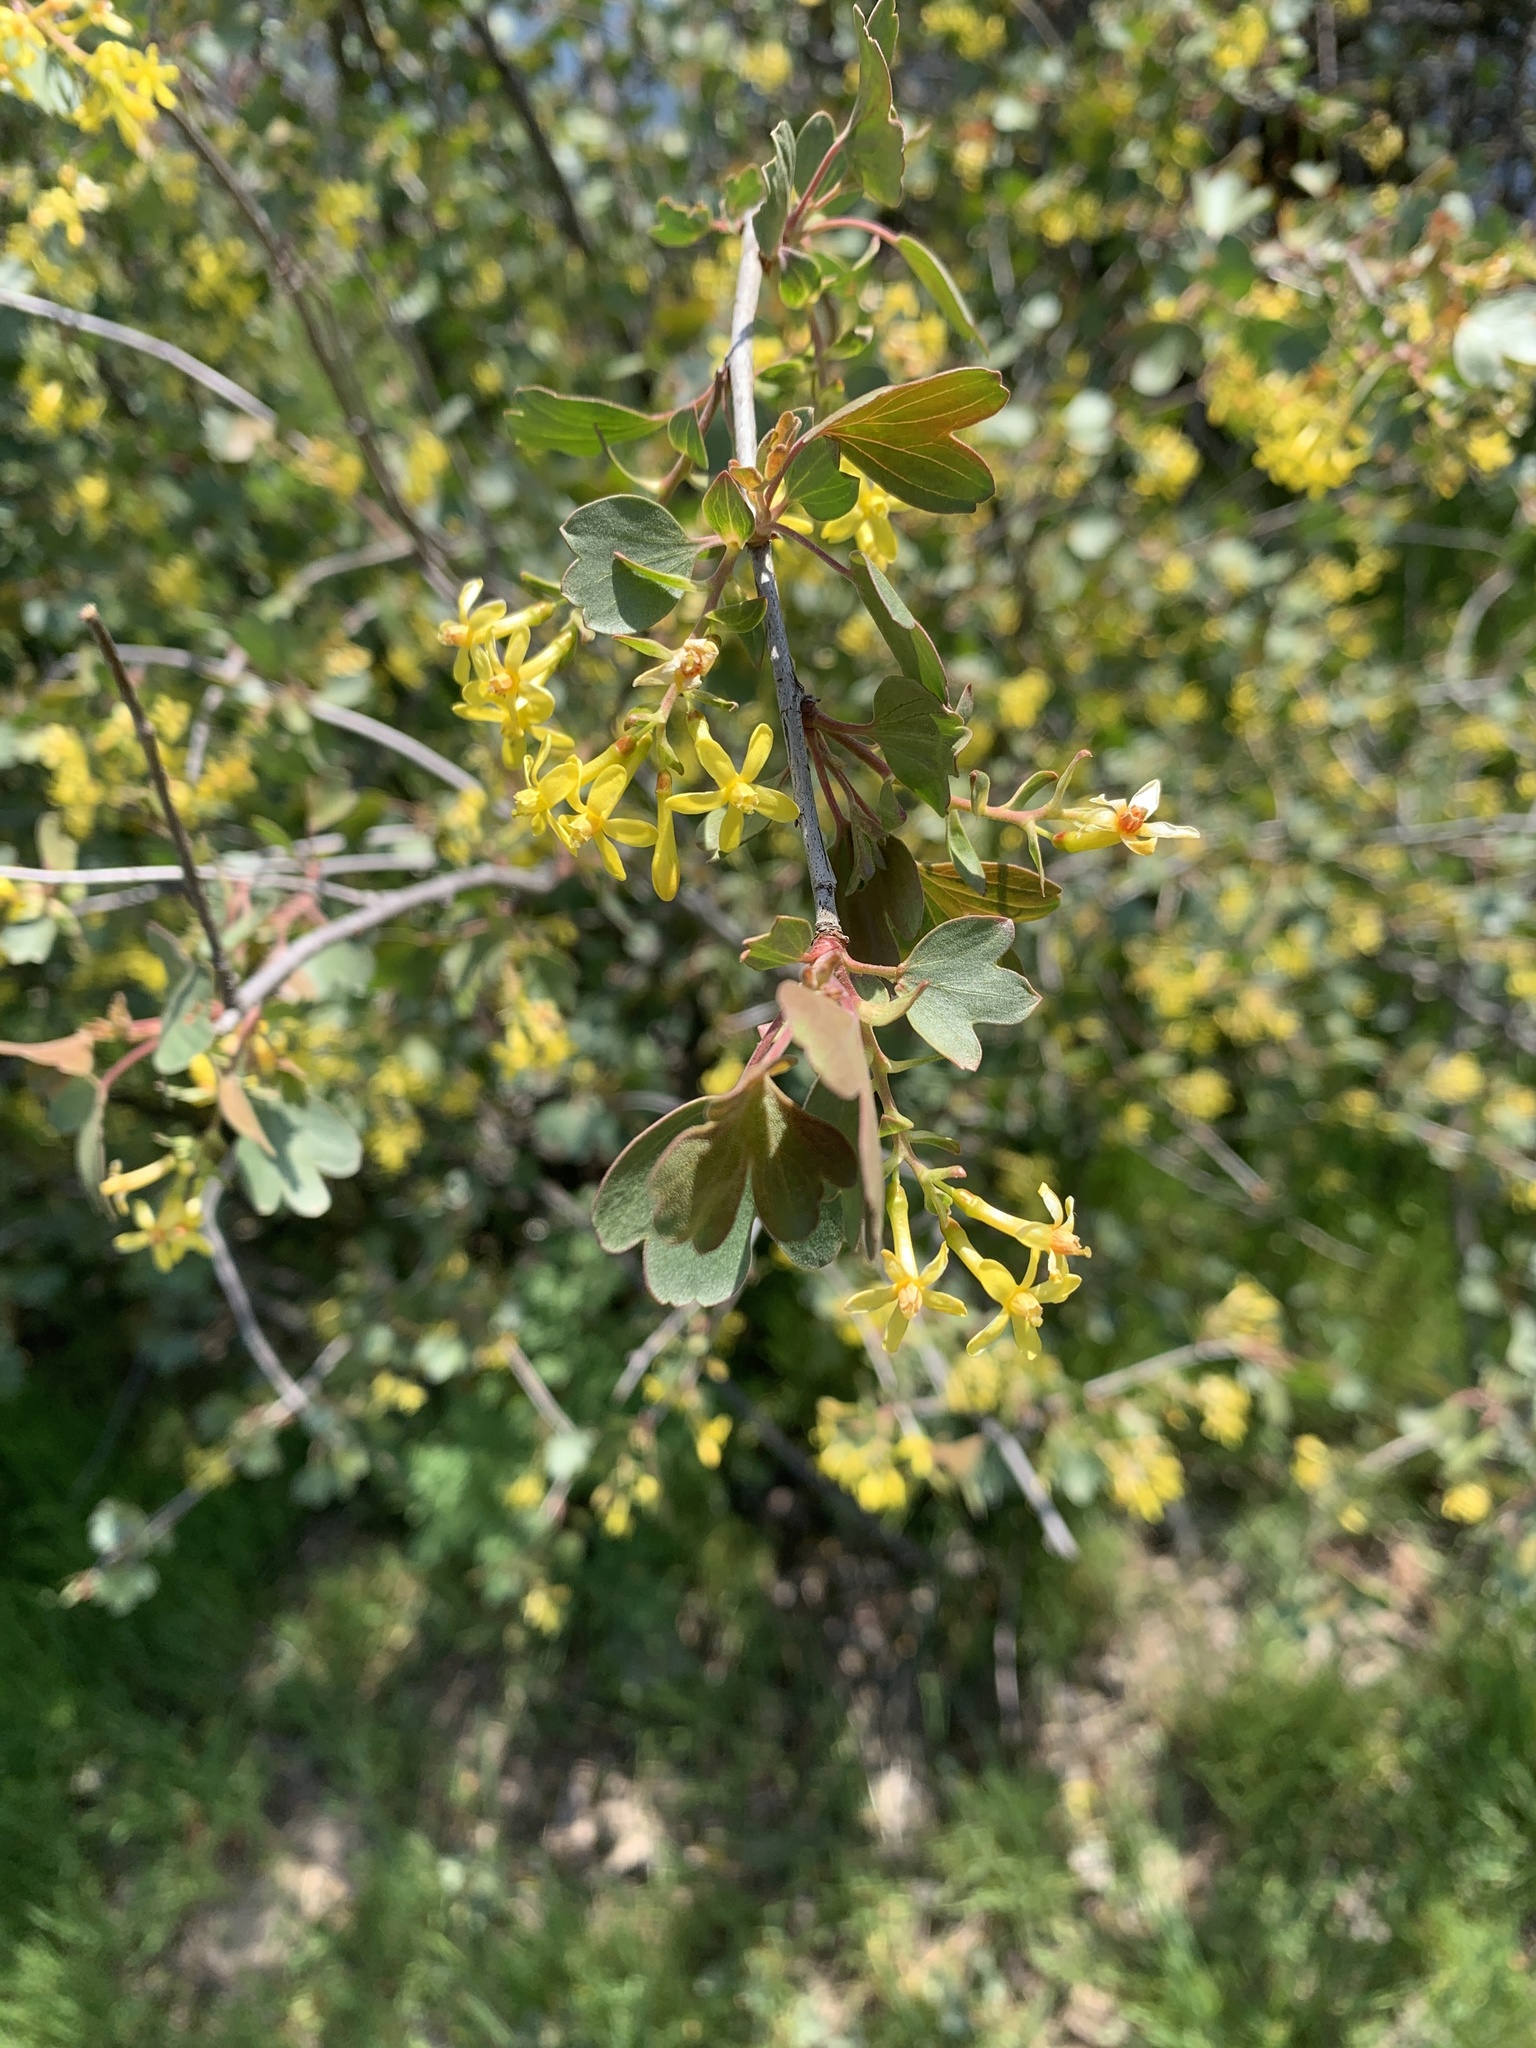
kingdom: Plantae
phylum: Tracheophyta
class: Magnoliopsida
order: Saxifragales
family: Grossulariaceae
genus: Ribes
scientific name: Ribes aureum
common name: Golden currant
